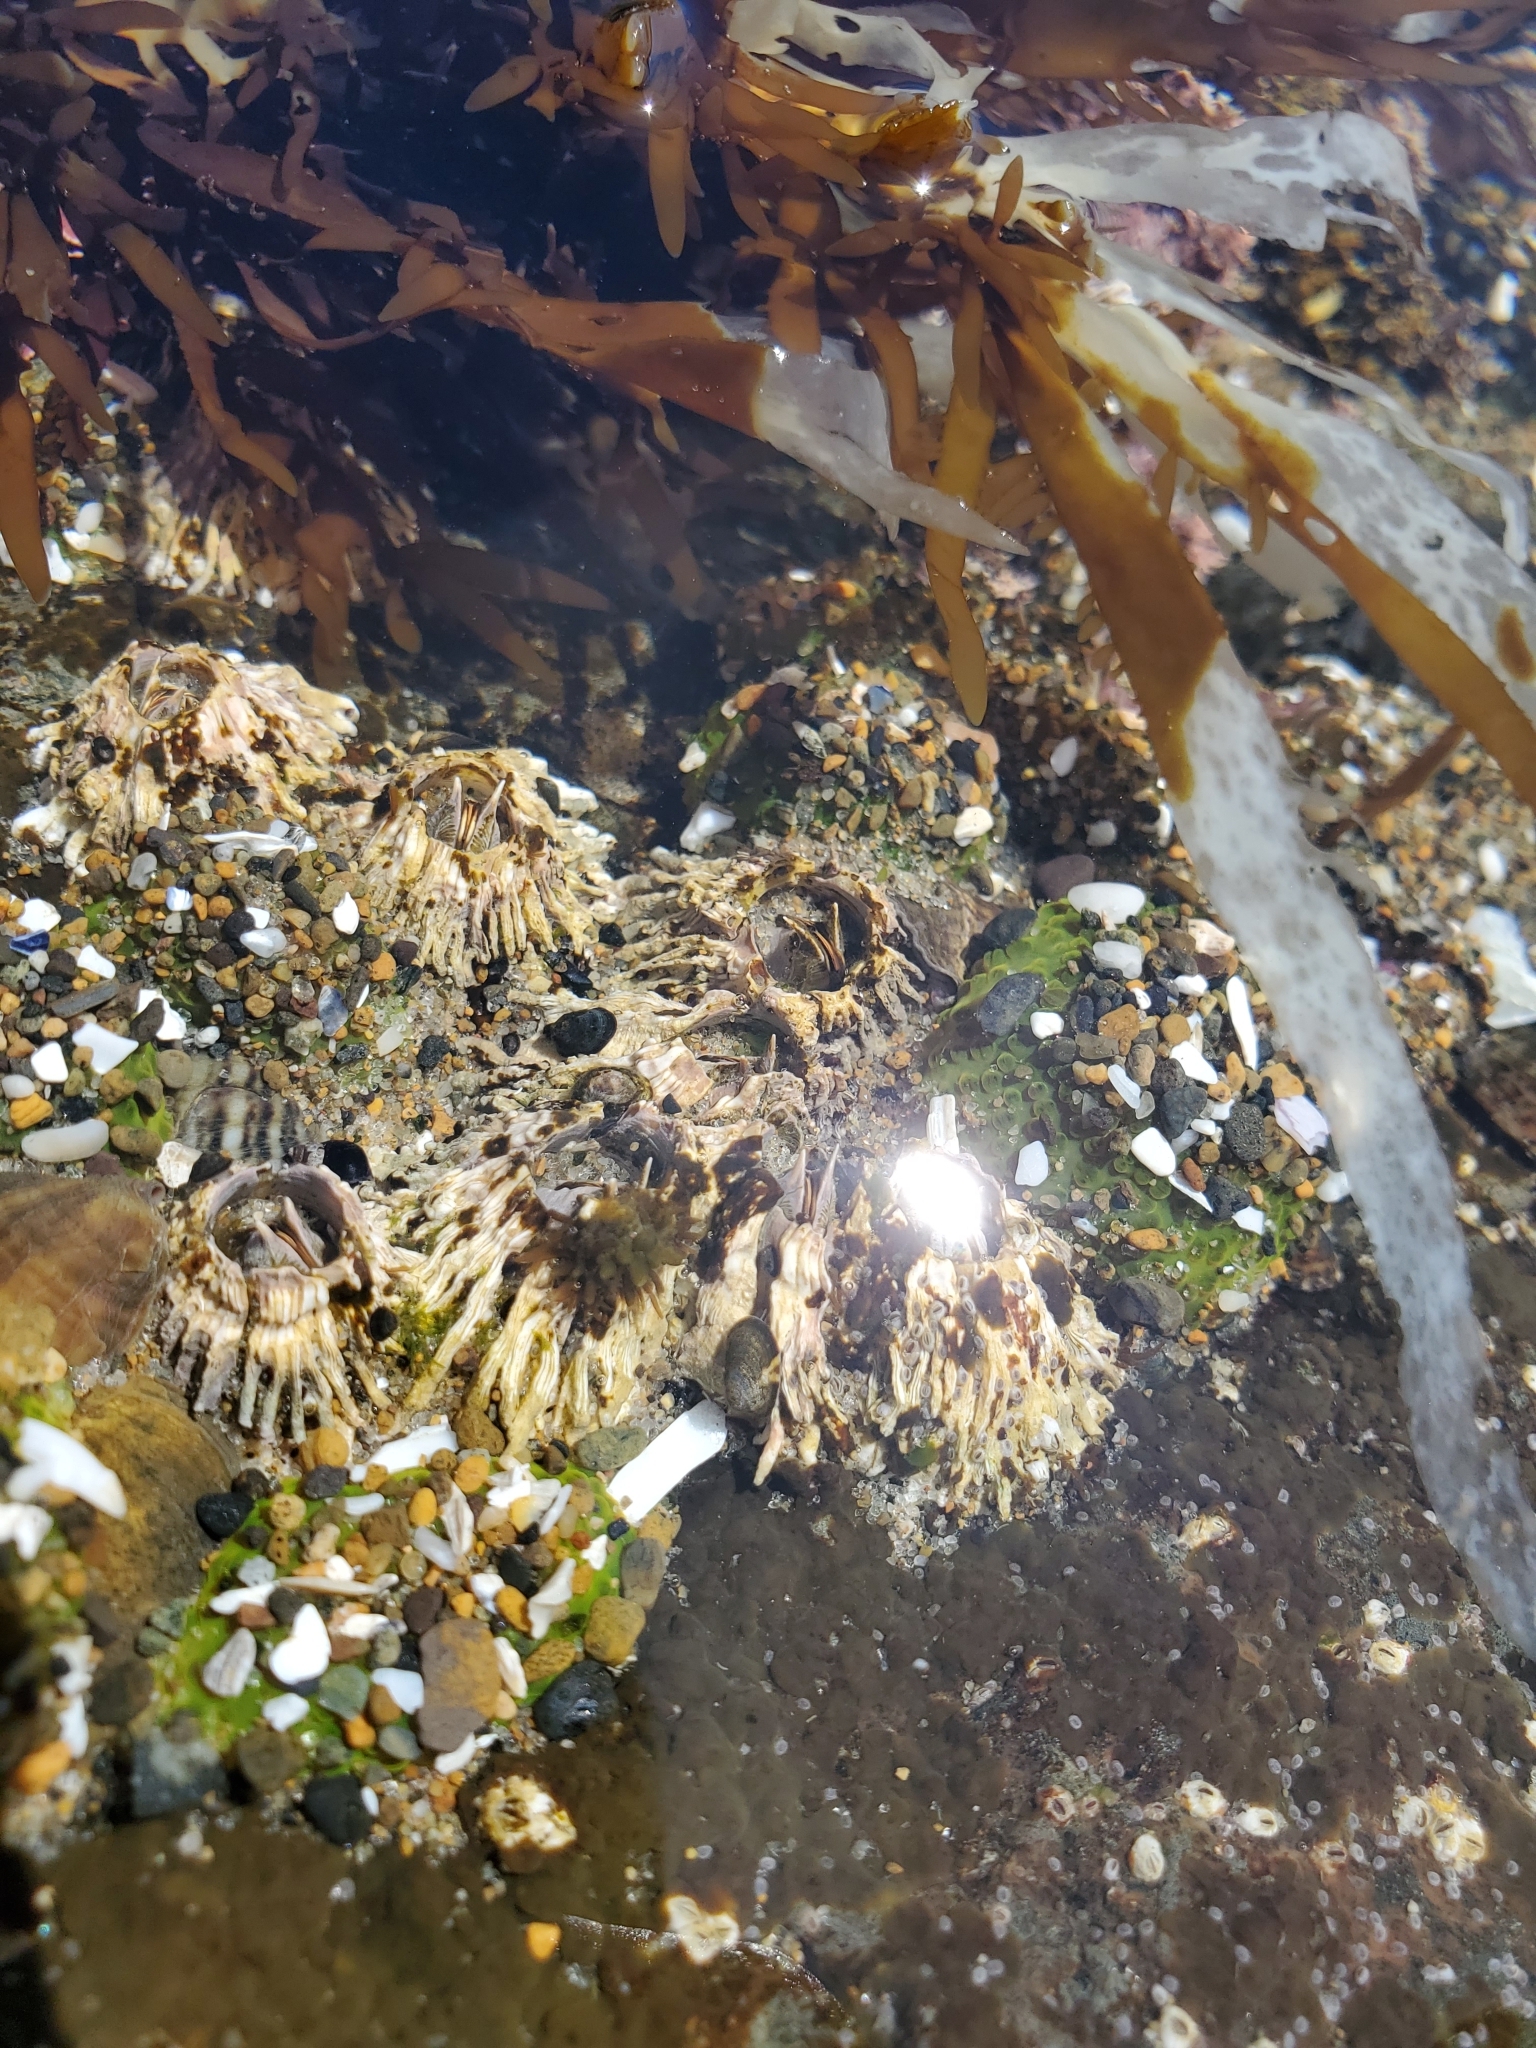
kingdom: Animalia
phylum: Arthropoda
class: Maxillopoda
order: Sessilia
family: Archaeobalanidae
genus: Semibalanus
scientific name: Semibalanus cariosus
